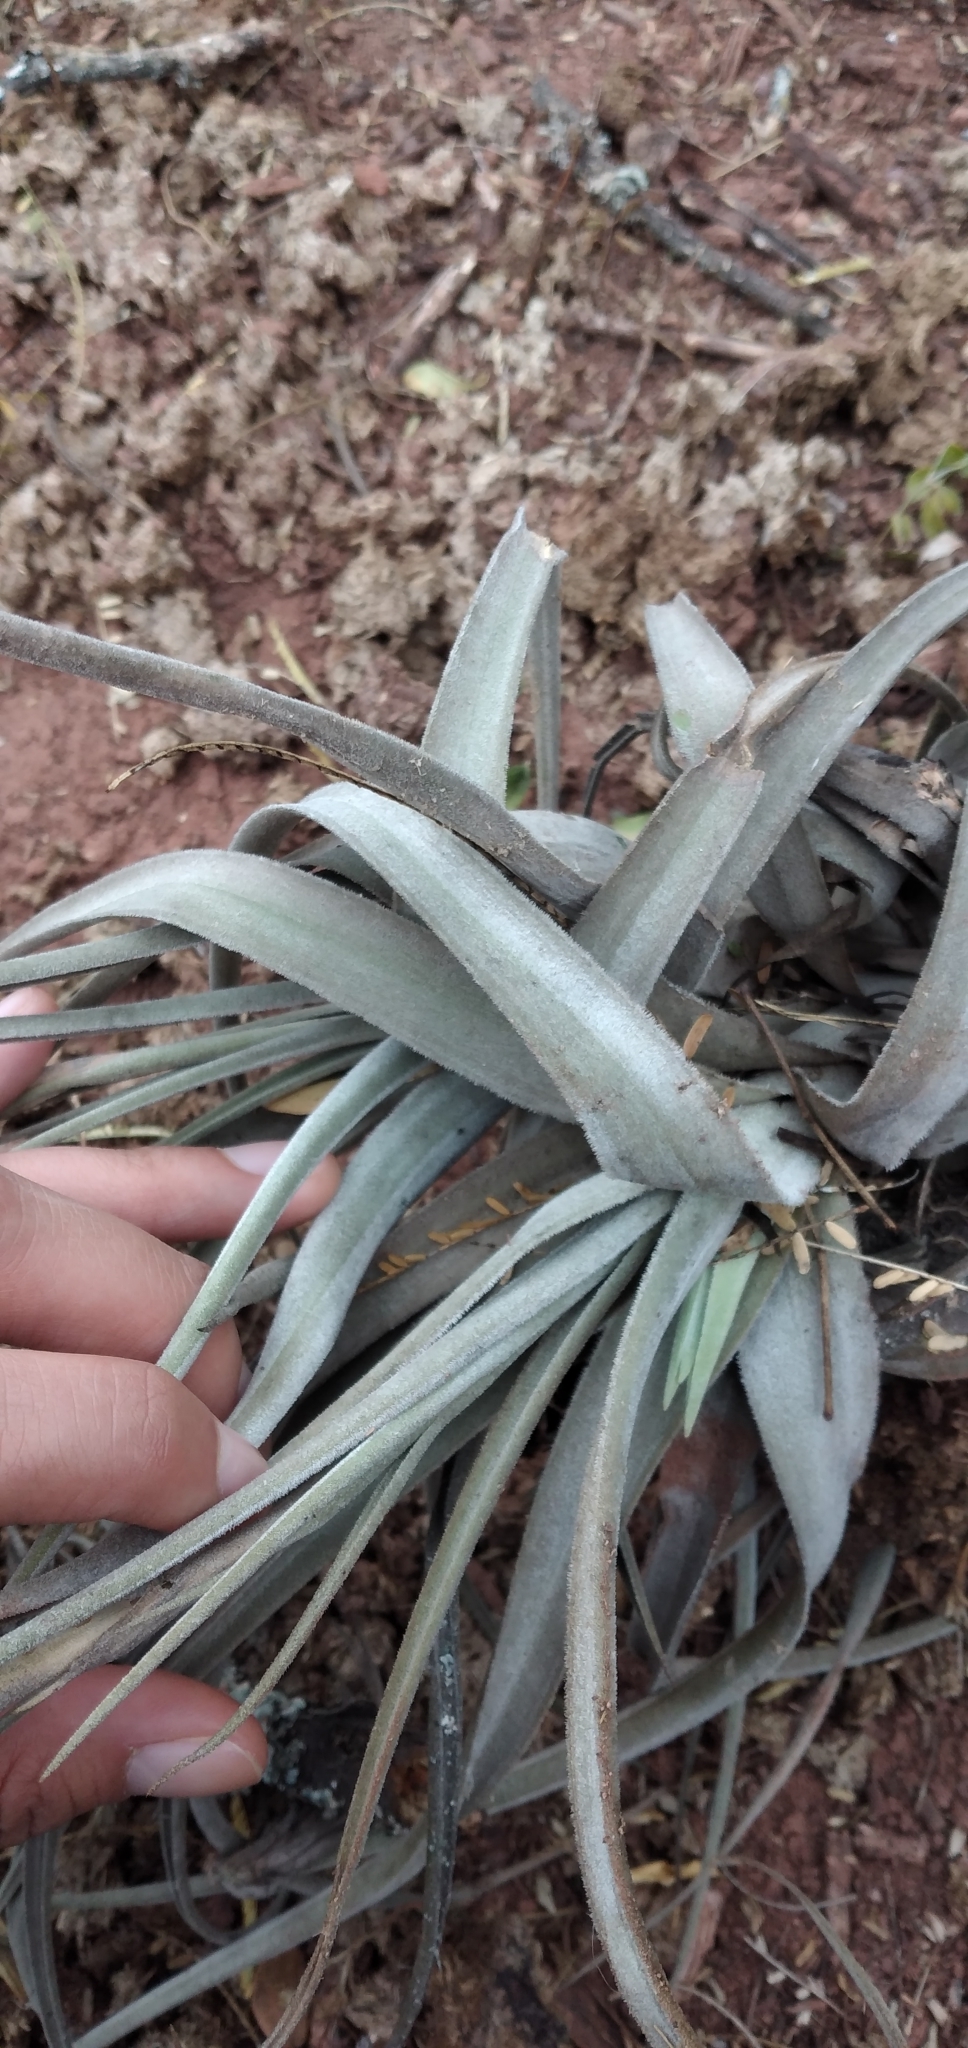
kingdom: Plantae
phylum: Tracheophyta
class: Liliopsida
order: Poales
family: Bromeliaceae
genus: Tillandsia
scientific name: Tillandsia lorentziana
